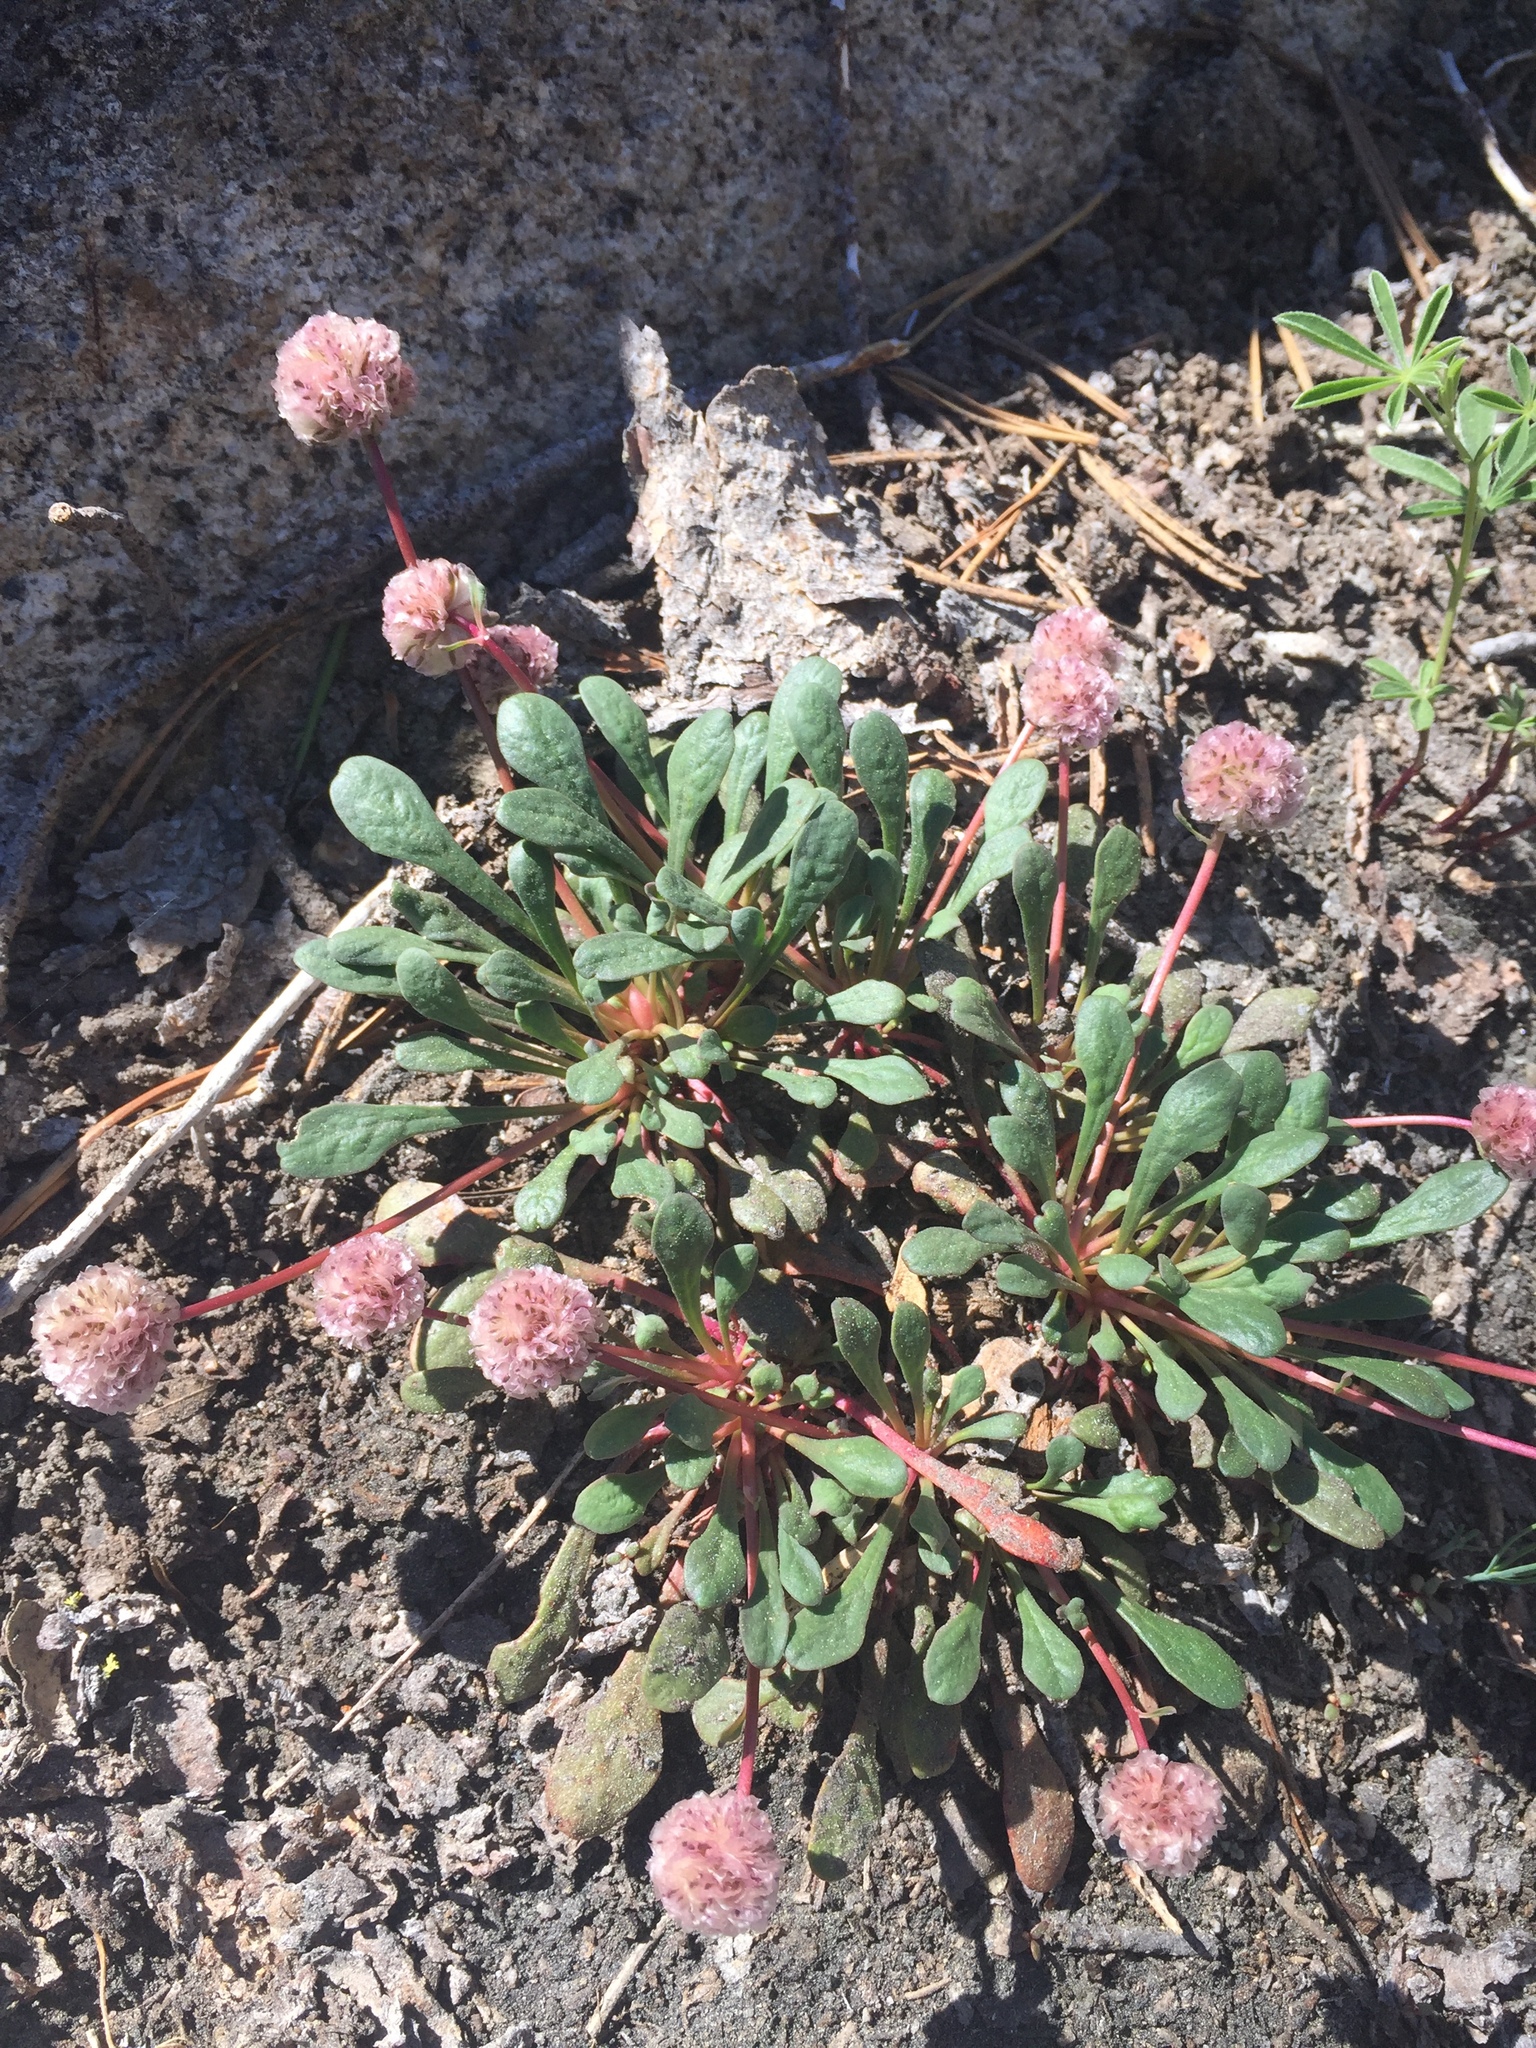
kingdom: Plantae
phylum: Tracheophyta
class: Magnoliopsida
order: Caryophyllales
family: Montiaceae
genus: Calyptridium
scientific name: Calyptridium umbellatum
